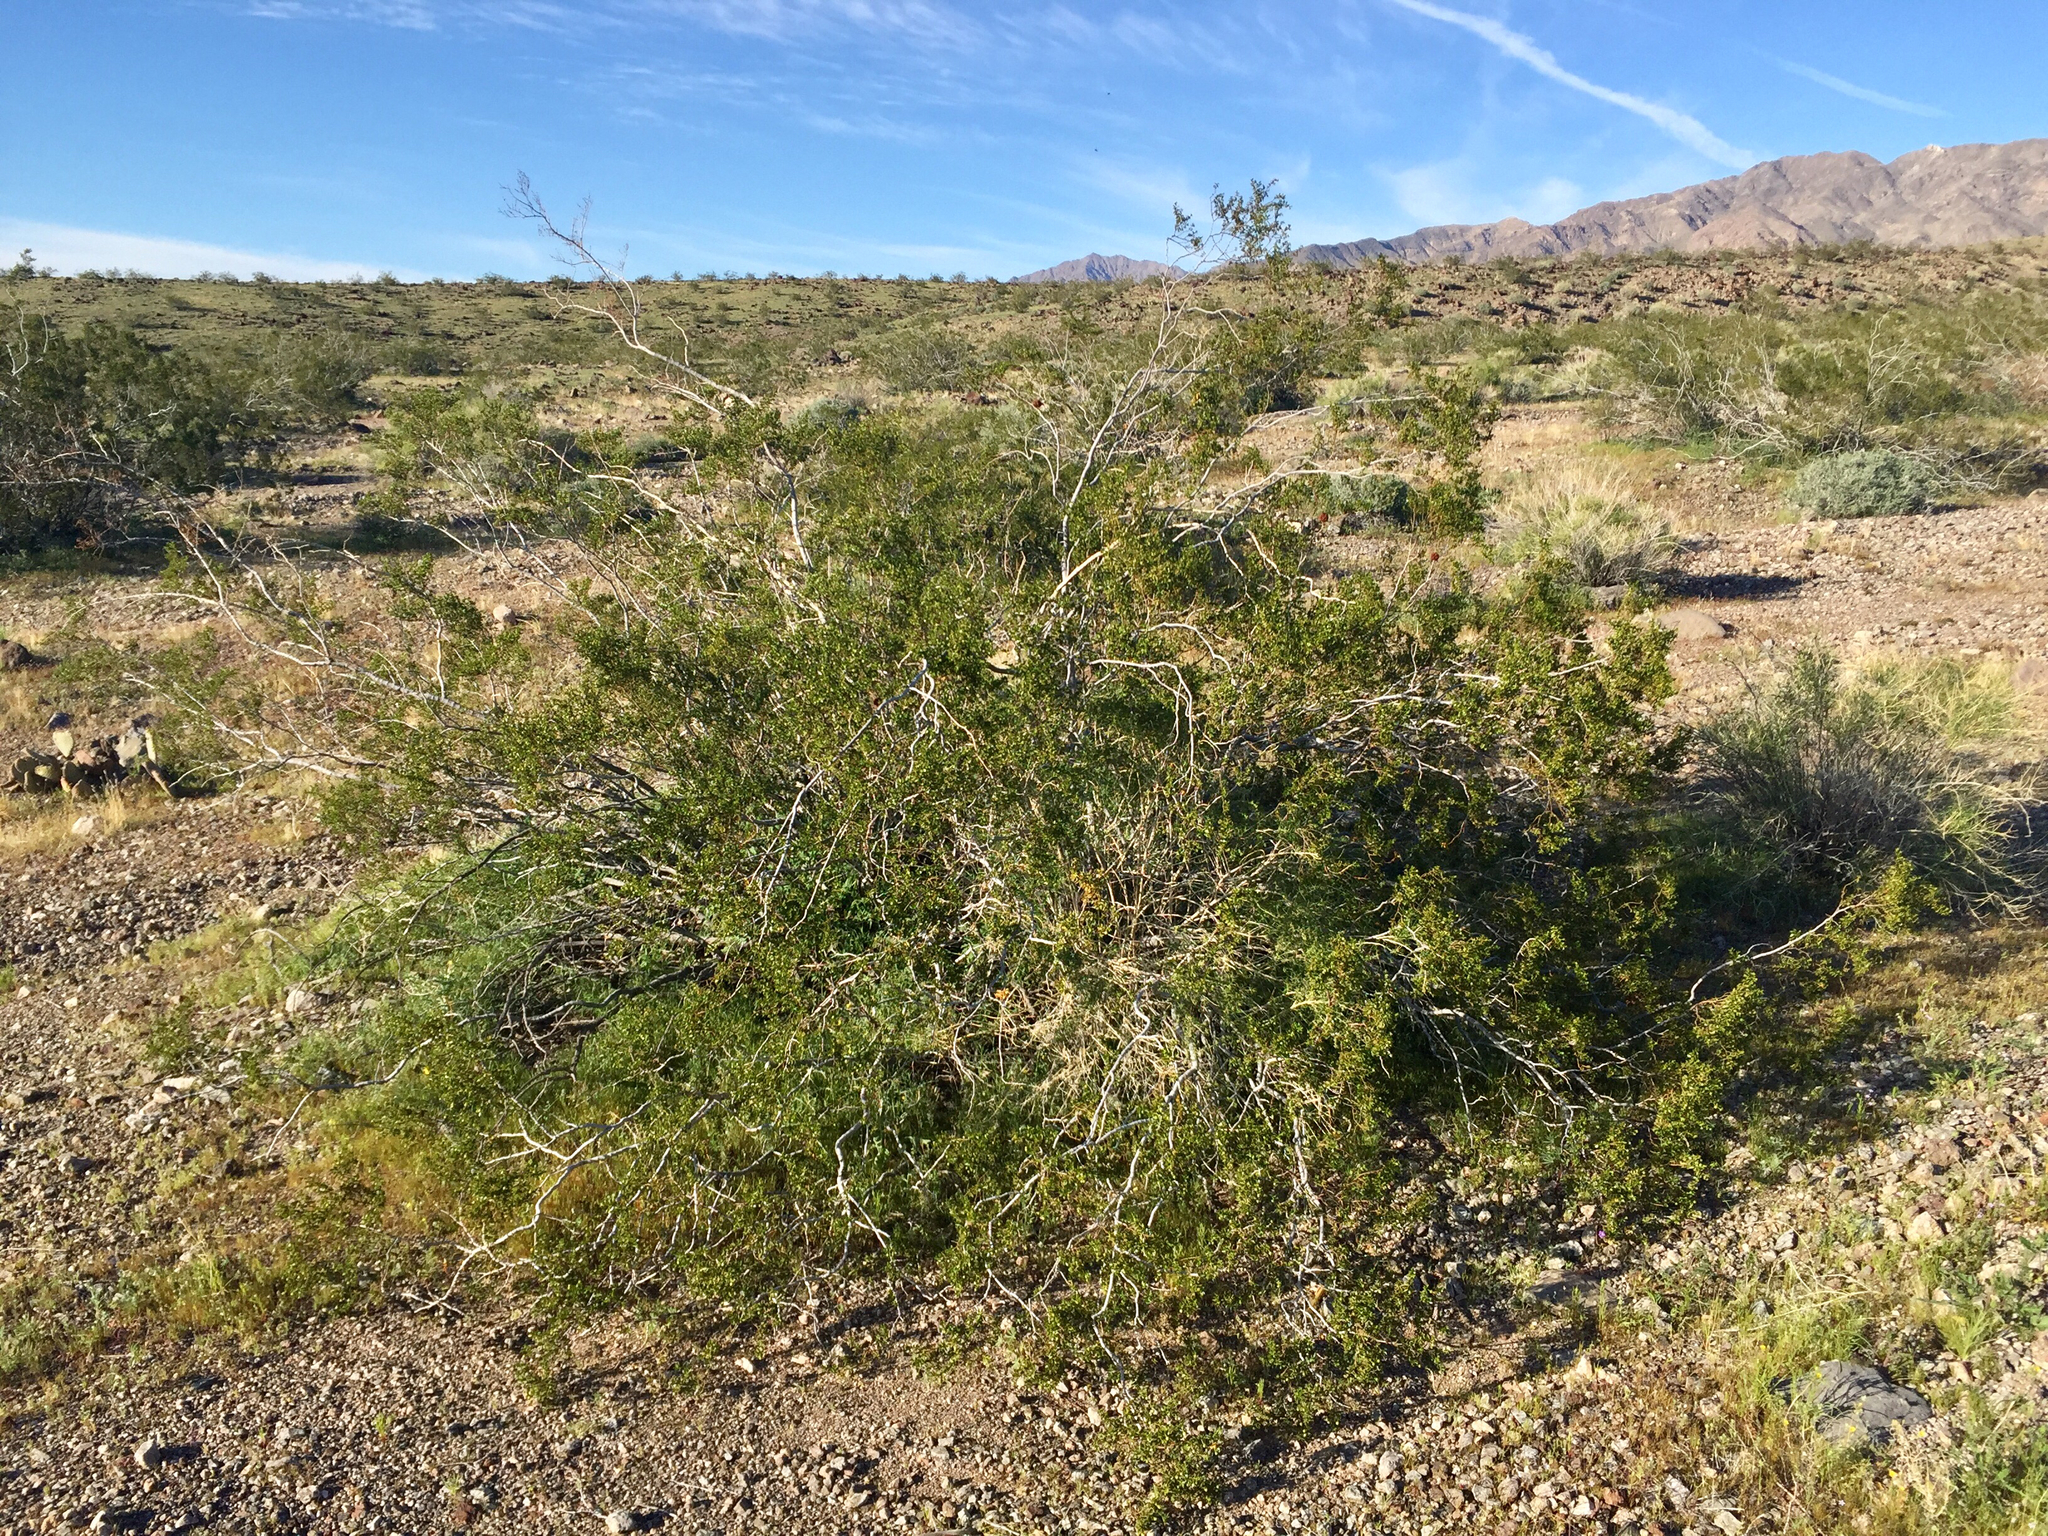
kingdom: Plantae
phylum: Tracheophyta
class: Magnoliopsida
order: Zygophyllales
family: Zygophyllaceae
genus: Larrea
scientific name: Larrea tridentata
